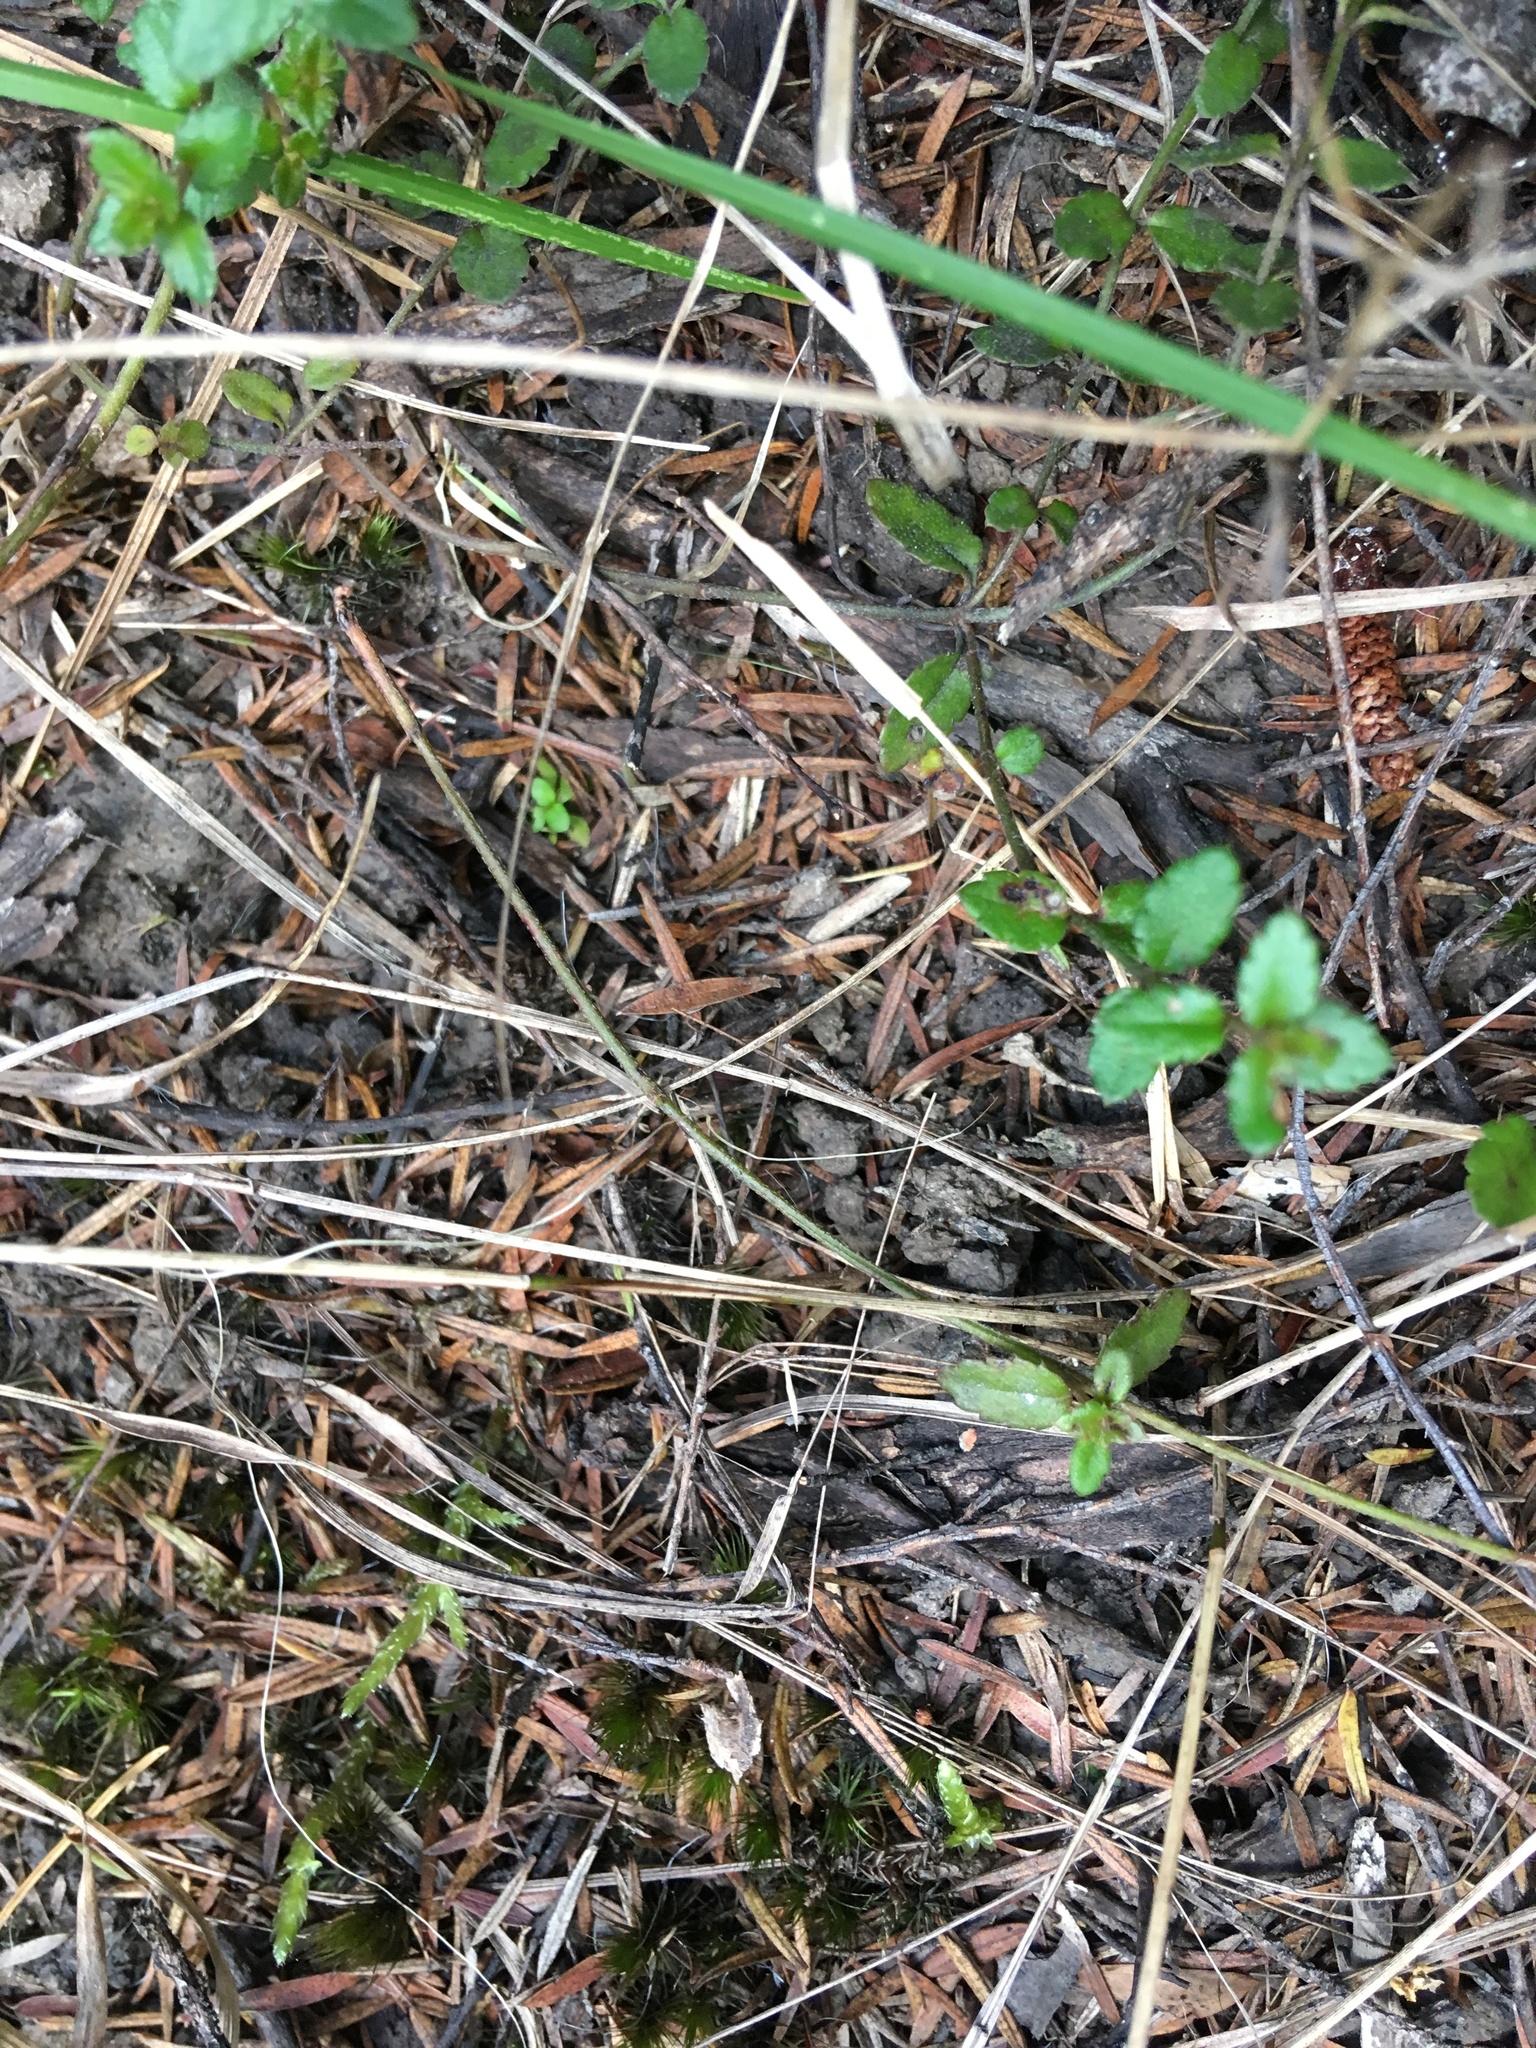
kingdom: Plantae
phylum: Tracheophyta
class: Magnoliopsida
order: Saxifragales
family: Haloragaceae
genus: Gonocarpus
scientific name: Gonocarpus incanus
